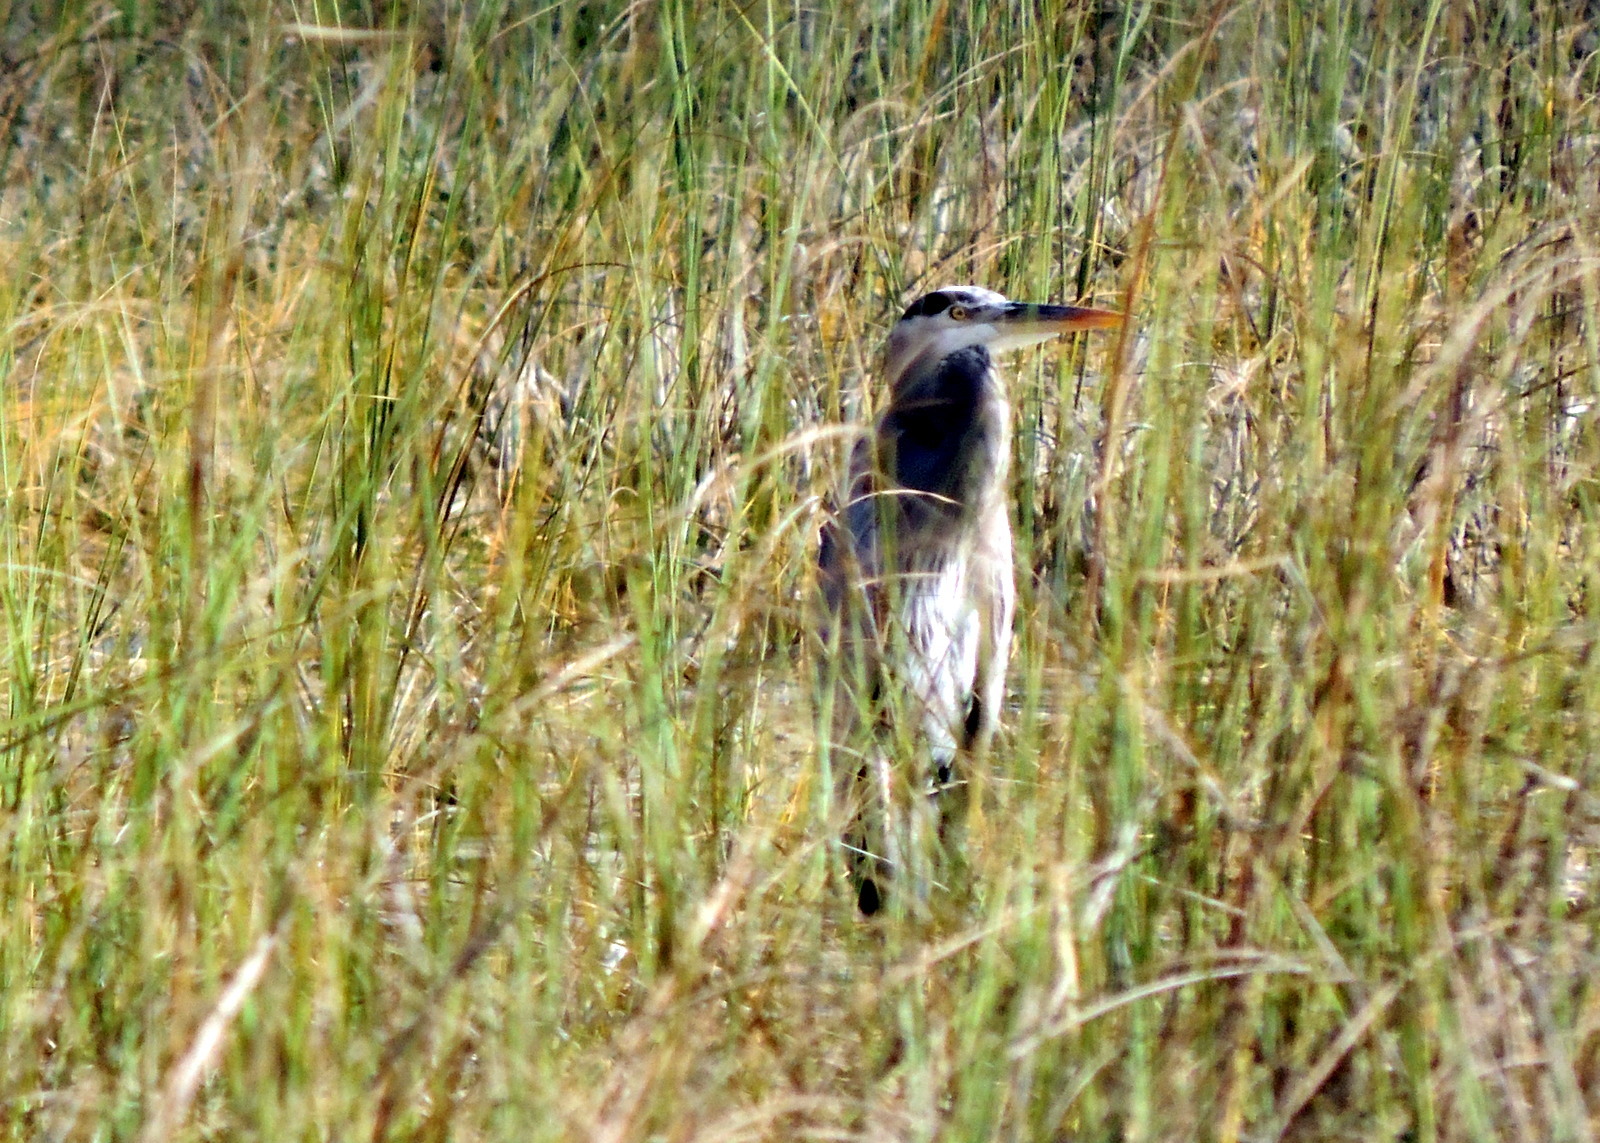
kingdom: Animalia
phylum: Chordata
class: Aves
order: Pelecaniformes
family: Ardeidae
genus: Ardea
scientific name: Ardea herodias
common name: Great blue heron
